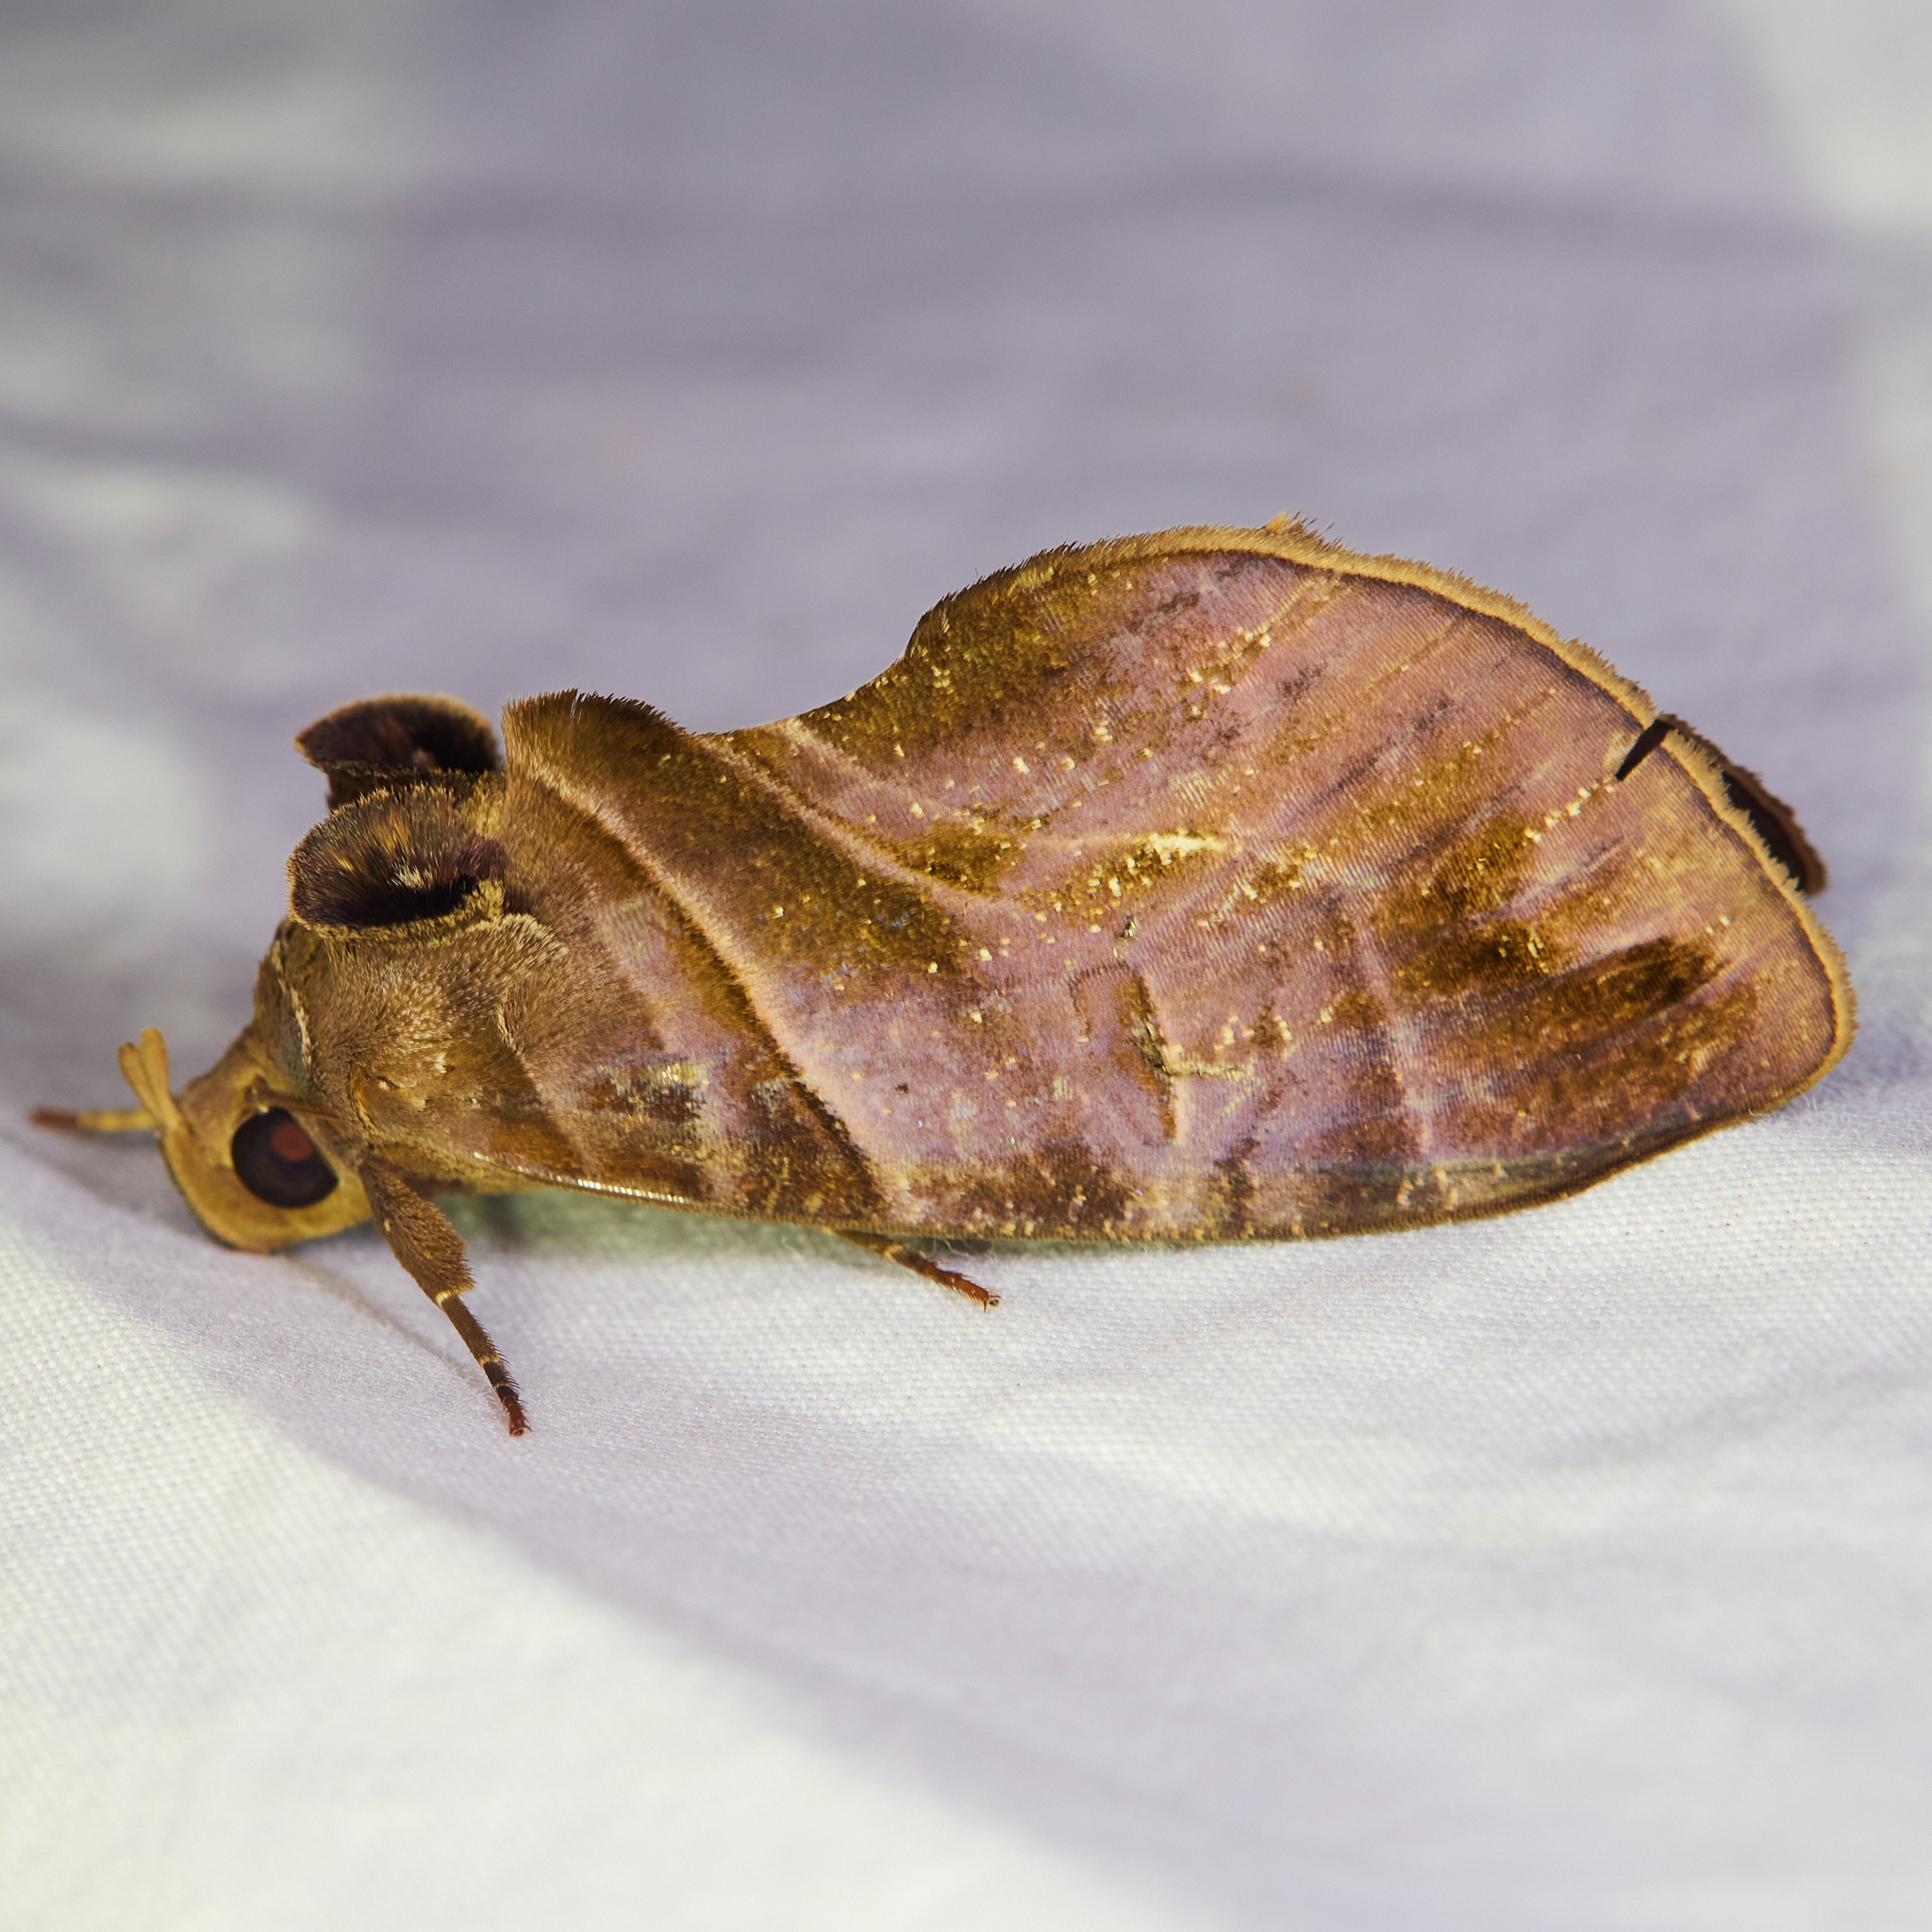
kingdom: Animalia
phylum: Arthropoda
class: Insecta
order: Lepidoptera
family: Erebidae
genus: Eudocima
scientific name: Eudocima memorans
